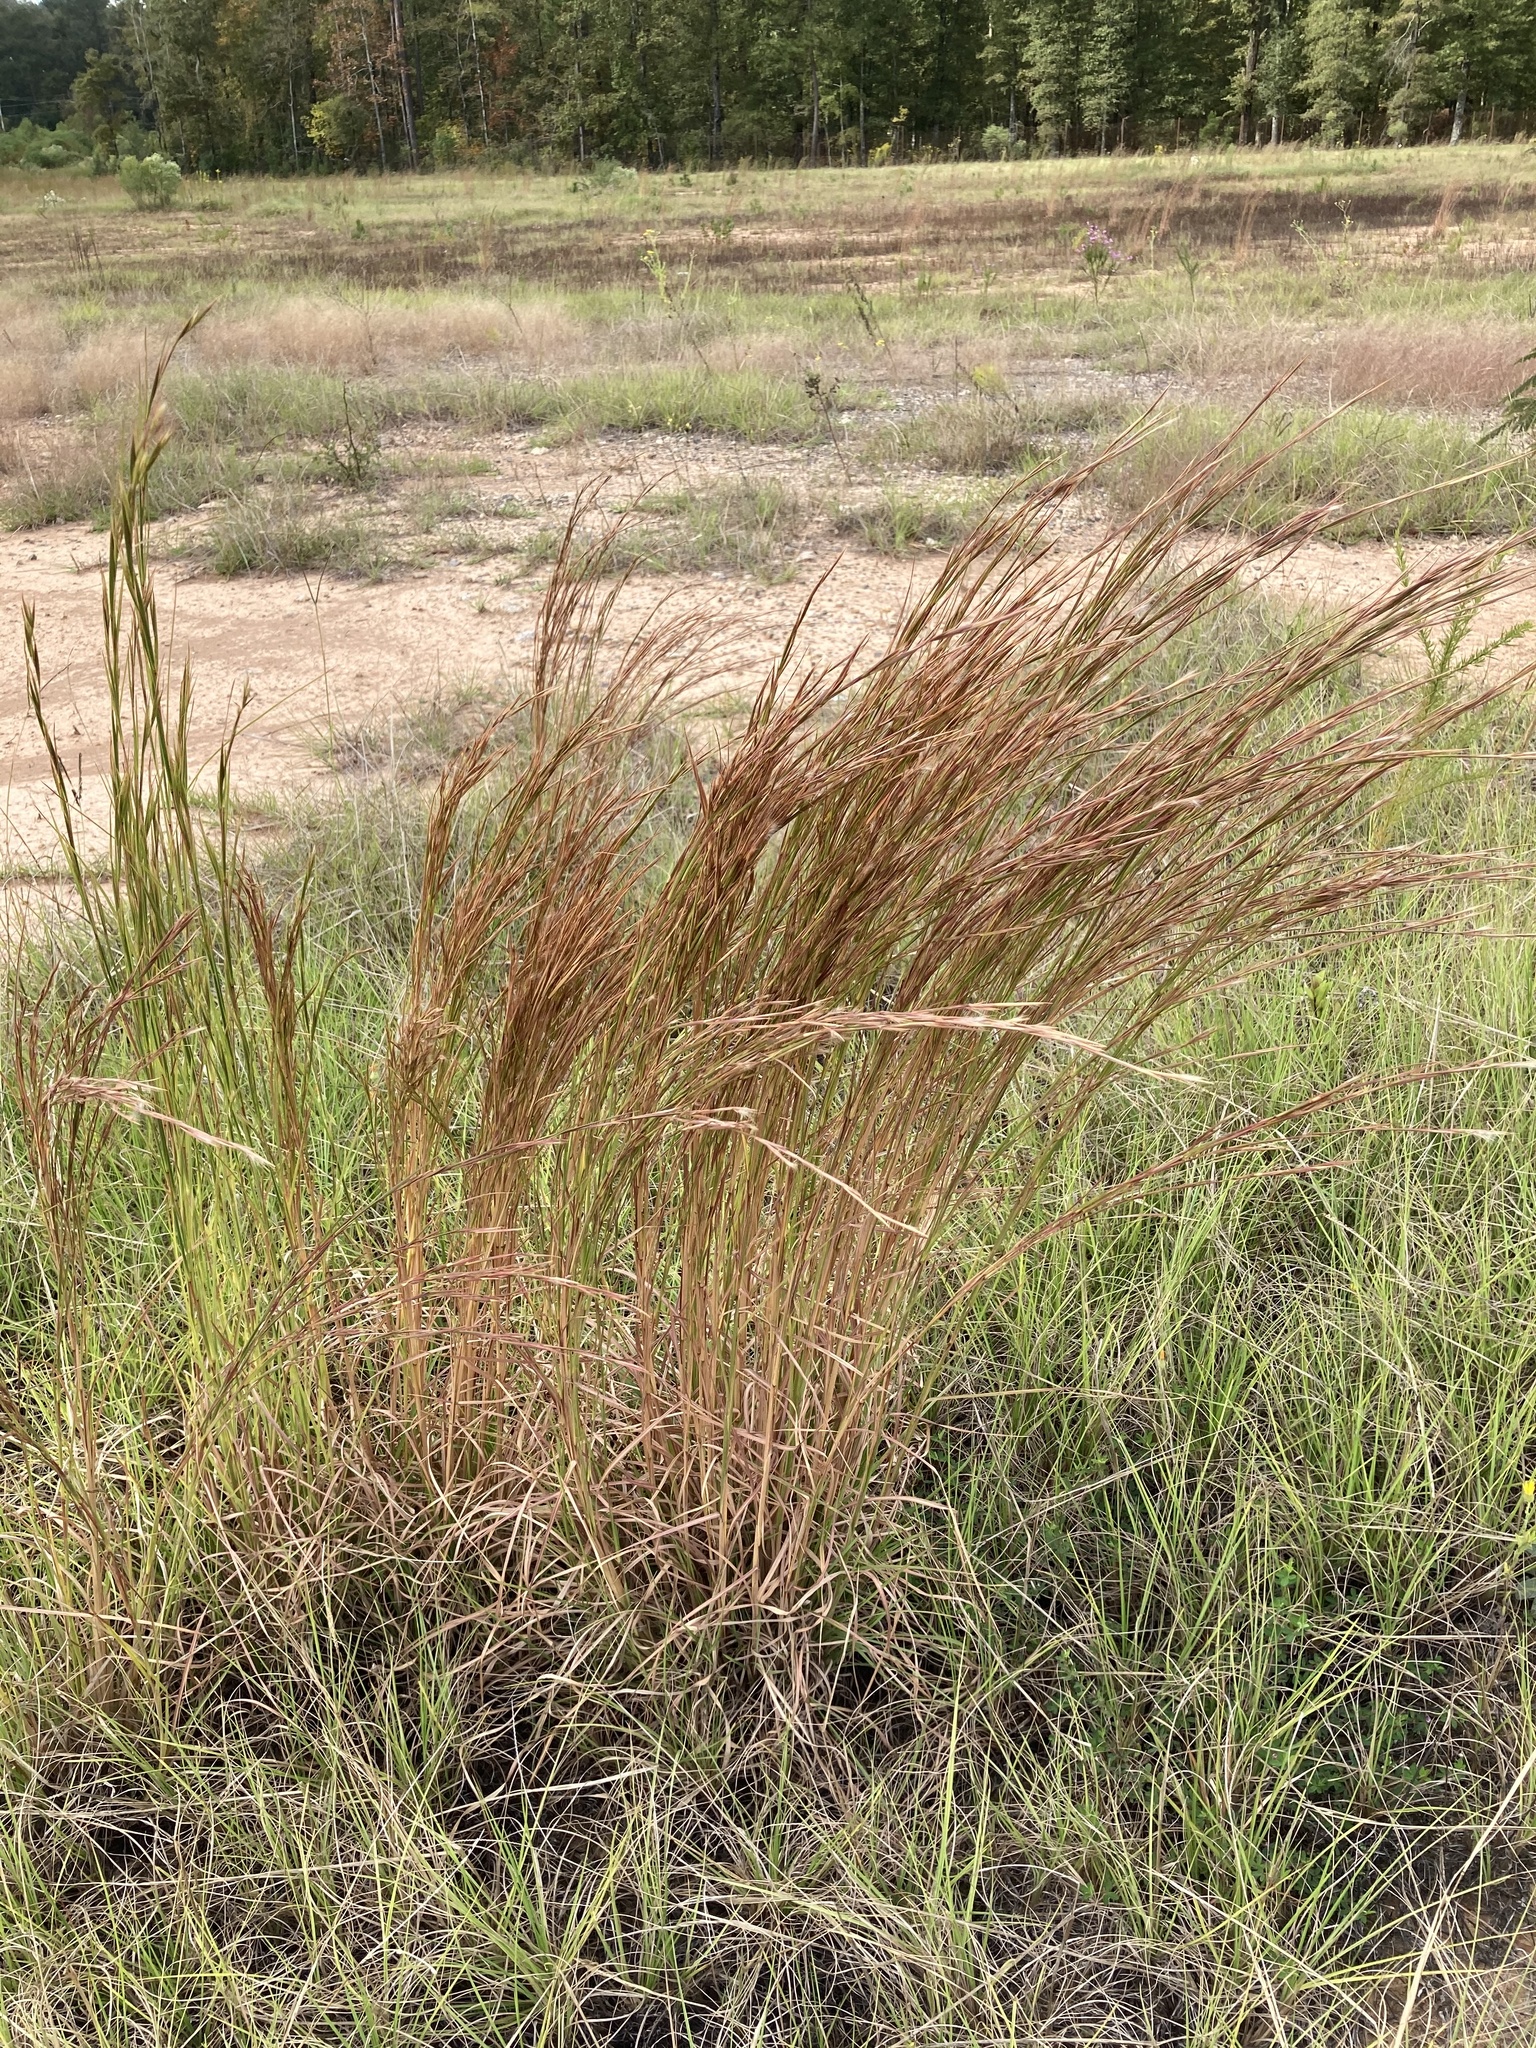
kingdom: Plantae
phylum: Tracheophyta
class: Liliopsida
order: Poales
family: Poaceae
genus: Andropogon
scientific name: Andropogon virginicus
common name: Broomsedge bluestem
